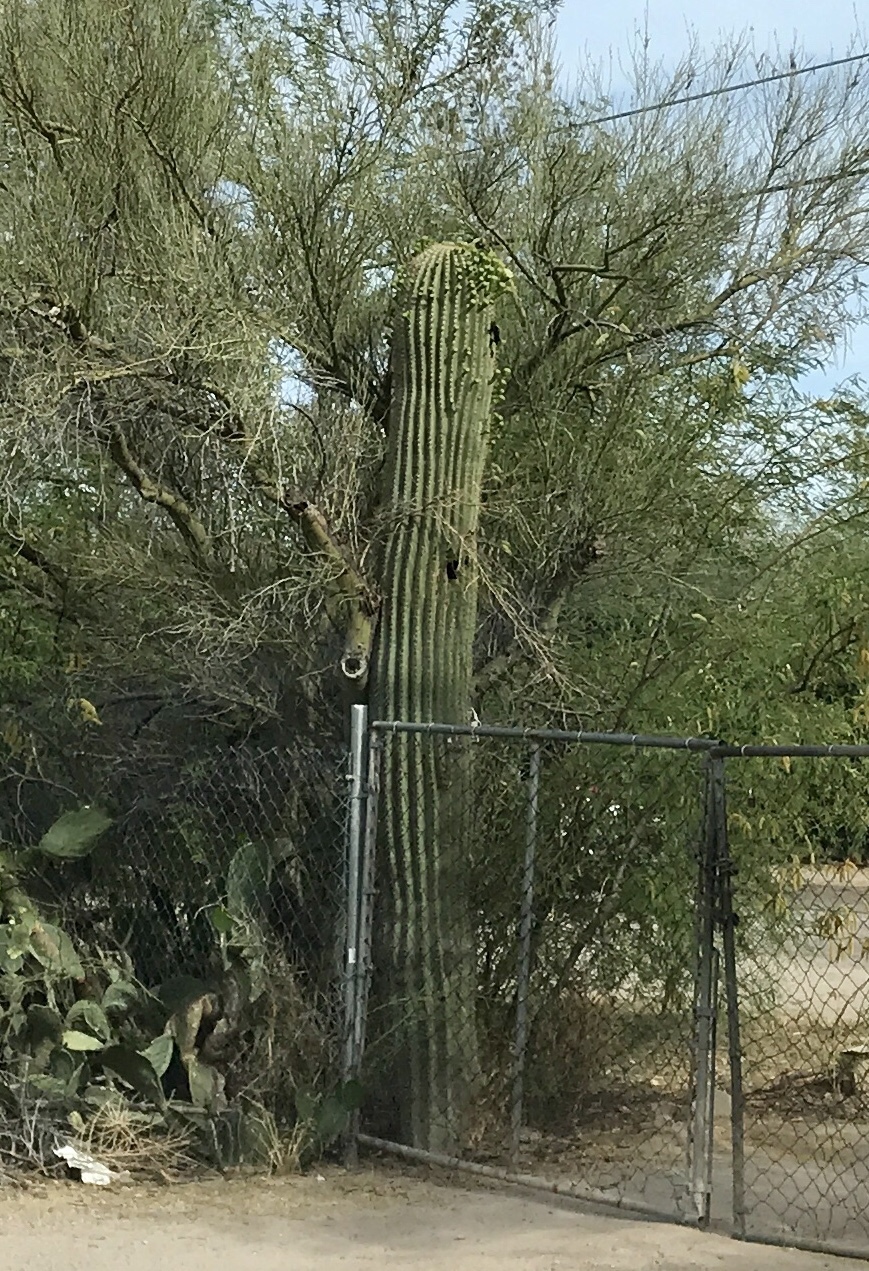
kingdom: Plantae
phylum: Tracheophyta
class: Magnoliopsida
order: Caryophyllales
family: Cactaceae
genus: Carnegiea
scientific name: Carnegiea gigantea
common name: Saguaro
